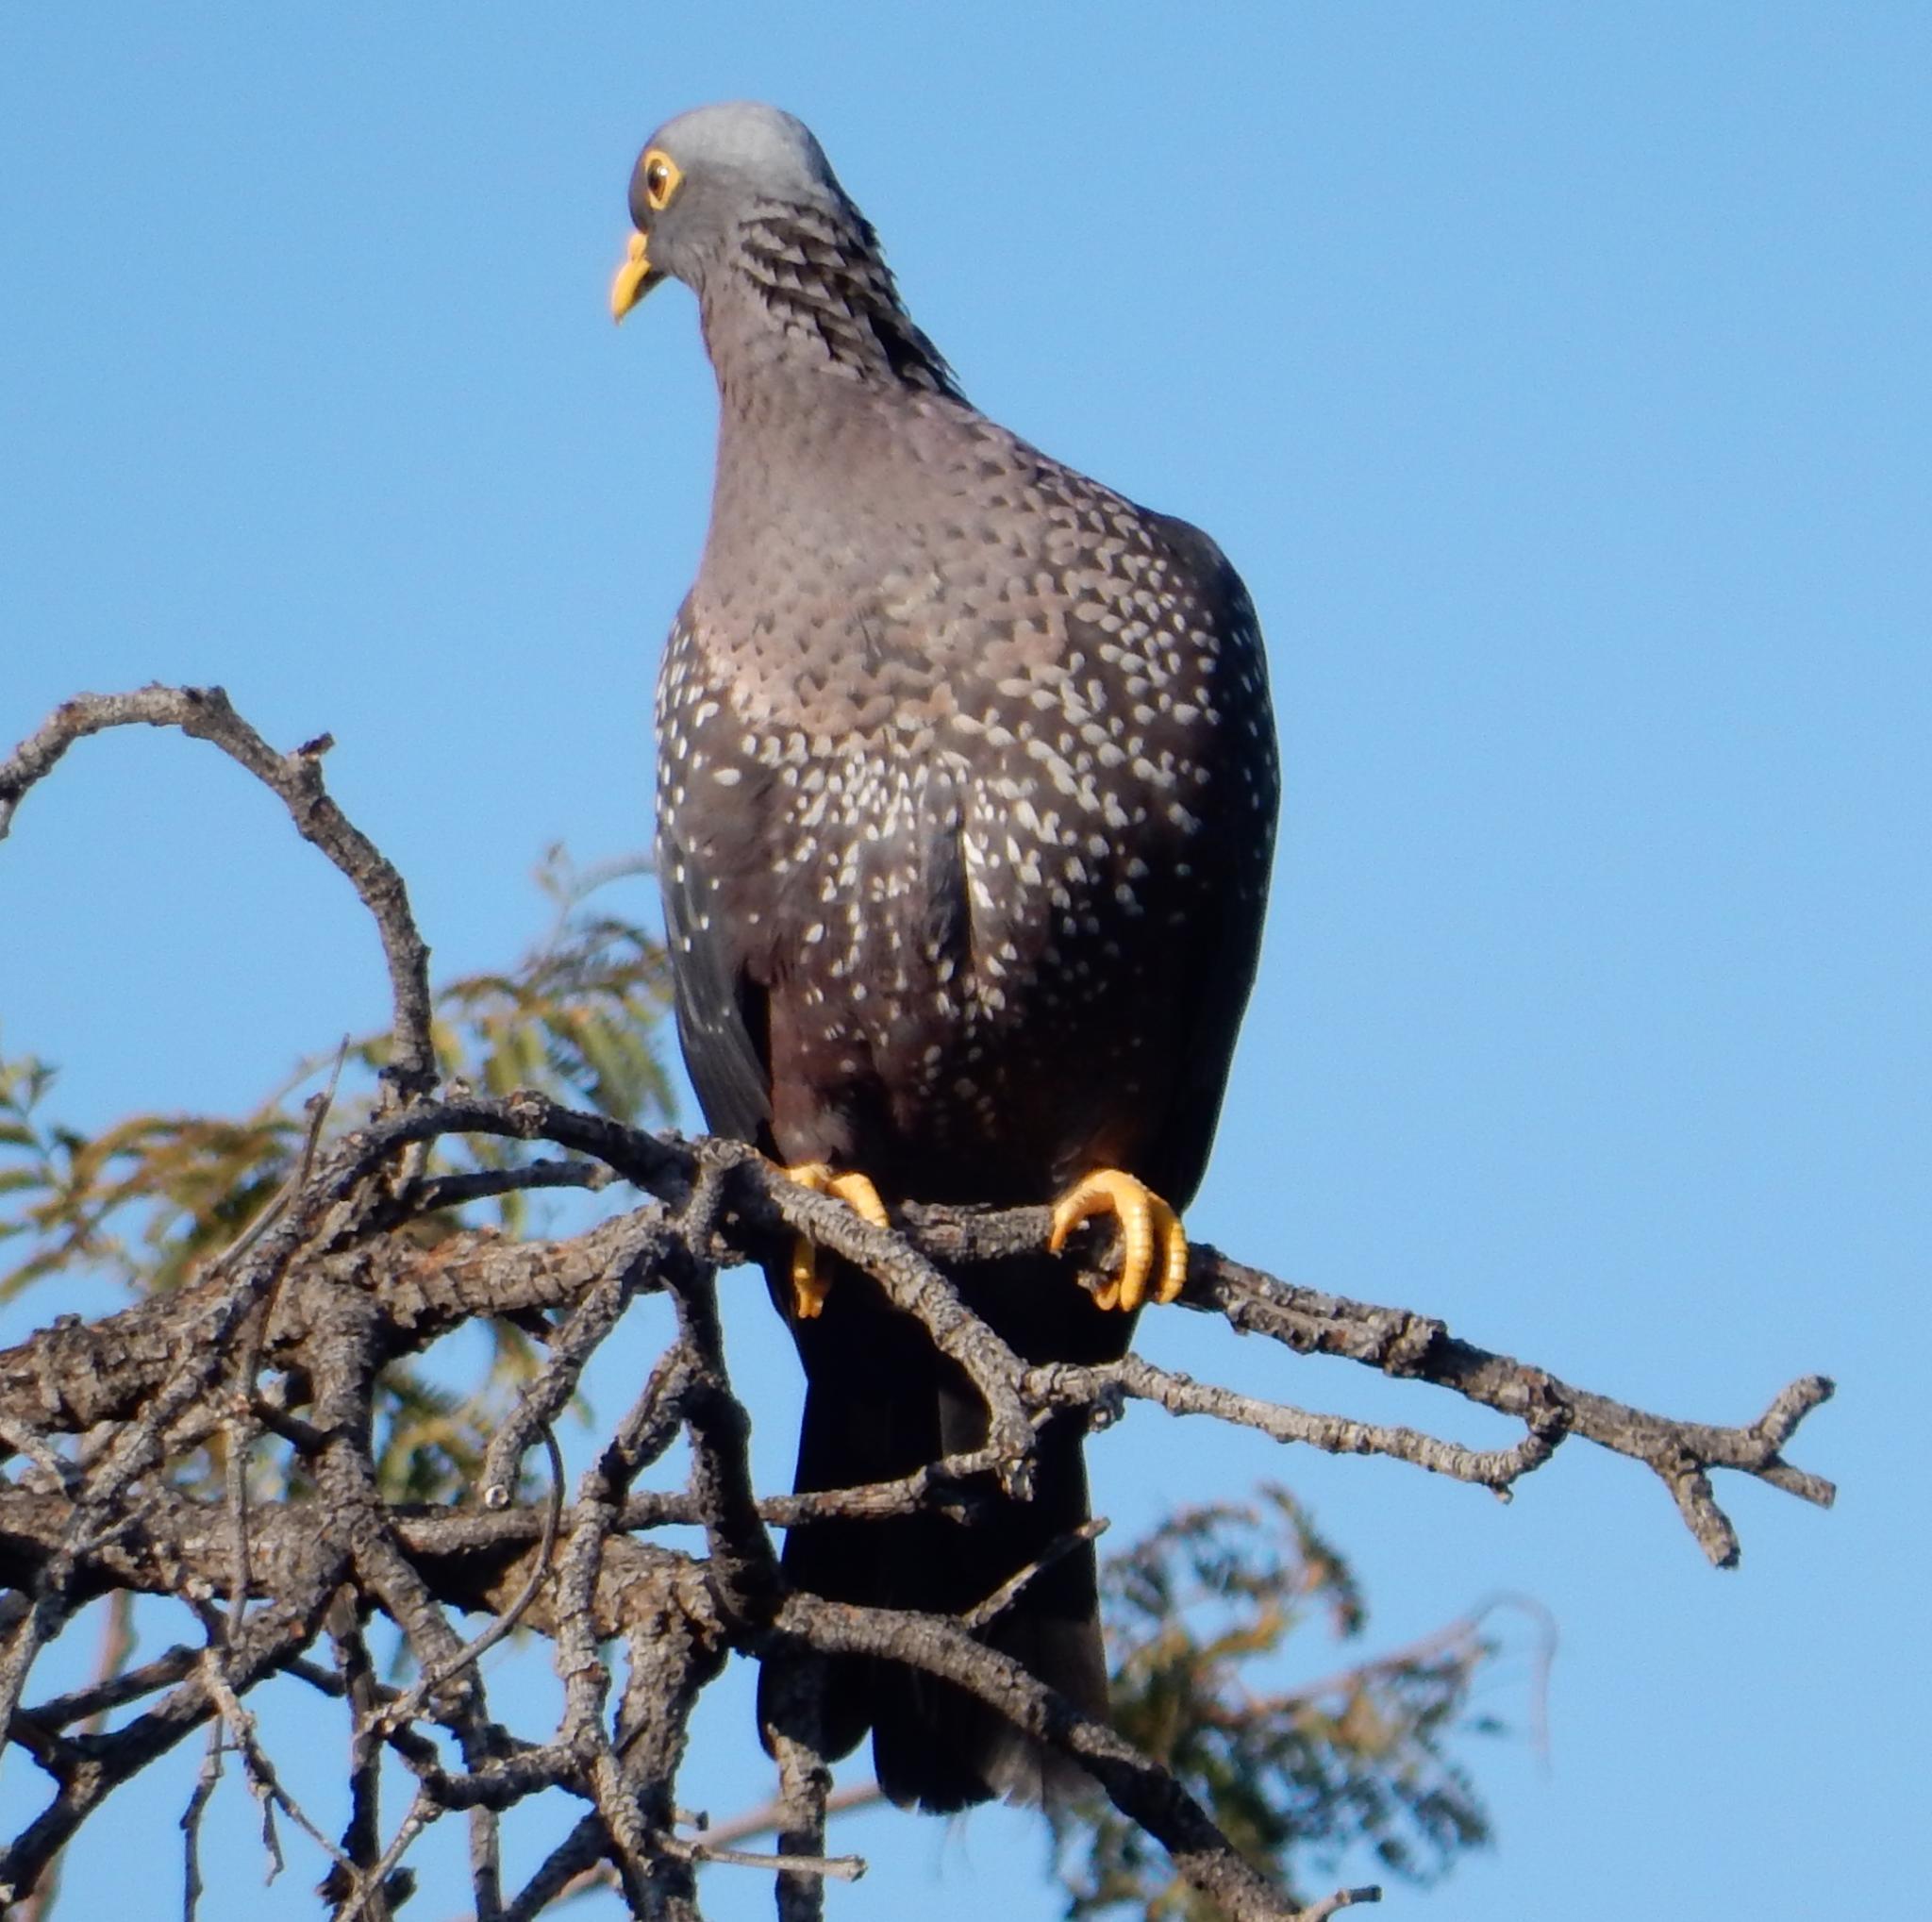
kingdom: Animalia
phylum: Chordata
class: Aves
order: Columbiformes
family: Columbidae
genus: Columba
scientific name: Columba arquatrix
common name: African olive pigeon
